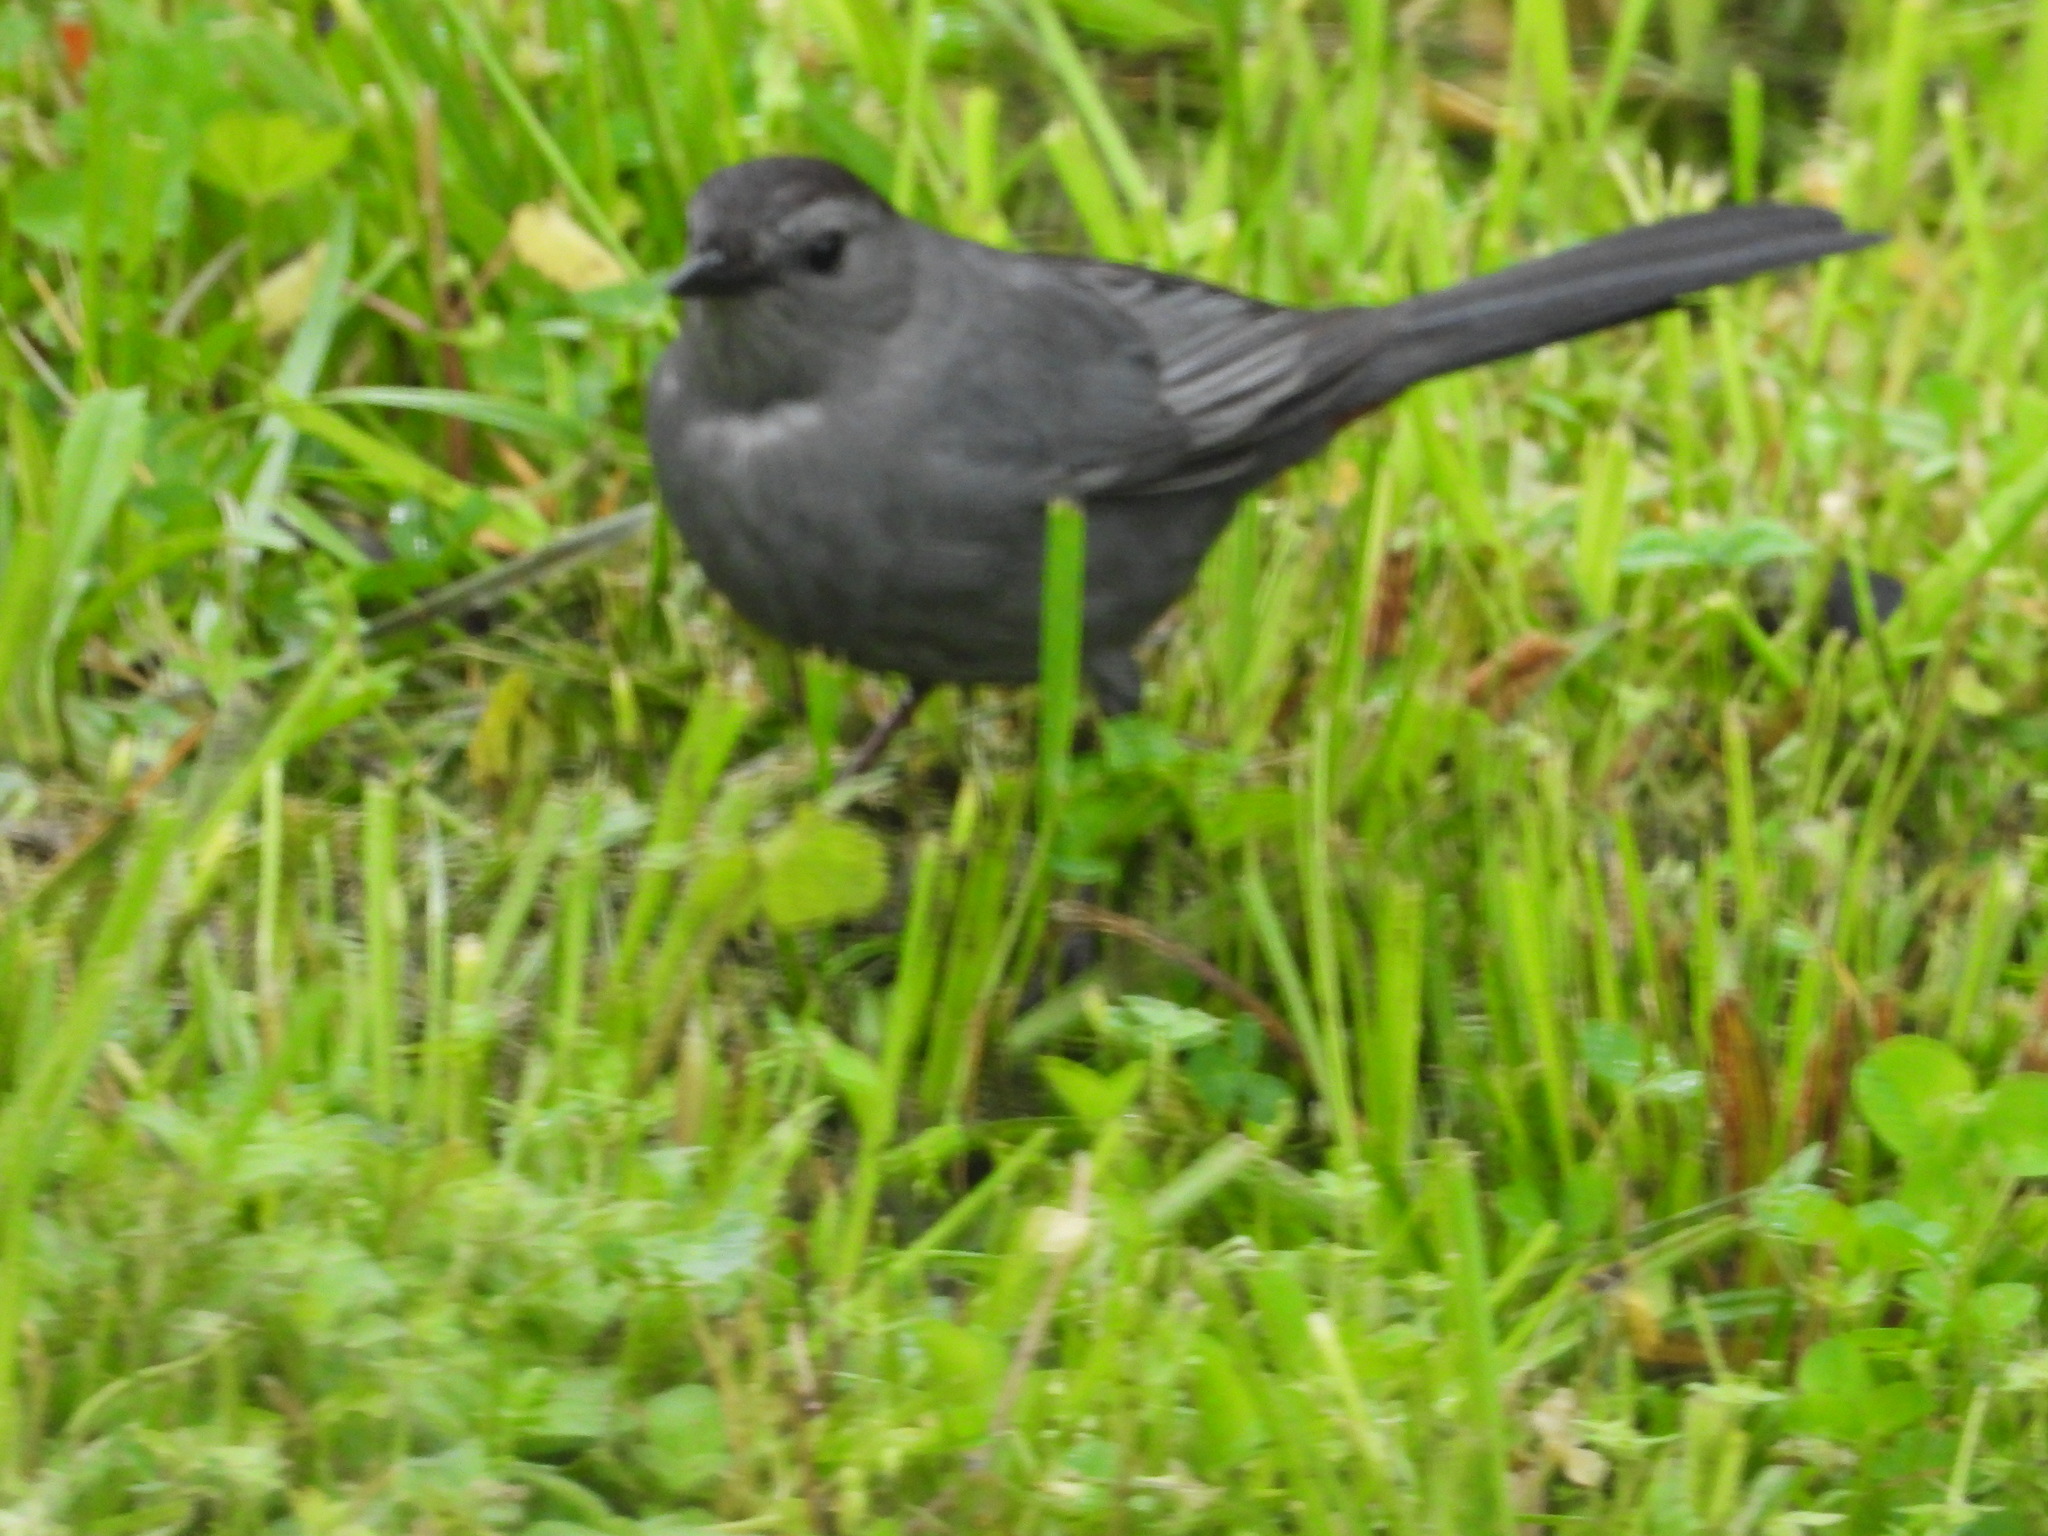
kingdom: Animalia
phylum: Chordata
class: Aves
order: Passeriformes
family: Mimidae
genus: Dumetella
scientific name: Dumetella carolinensis
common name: Gray catbird
